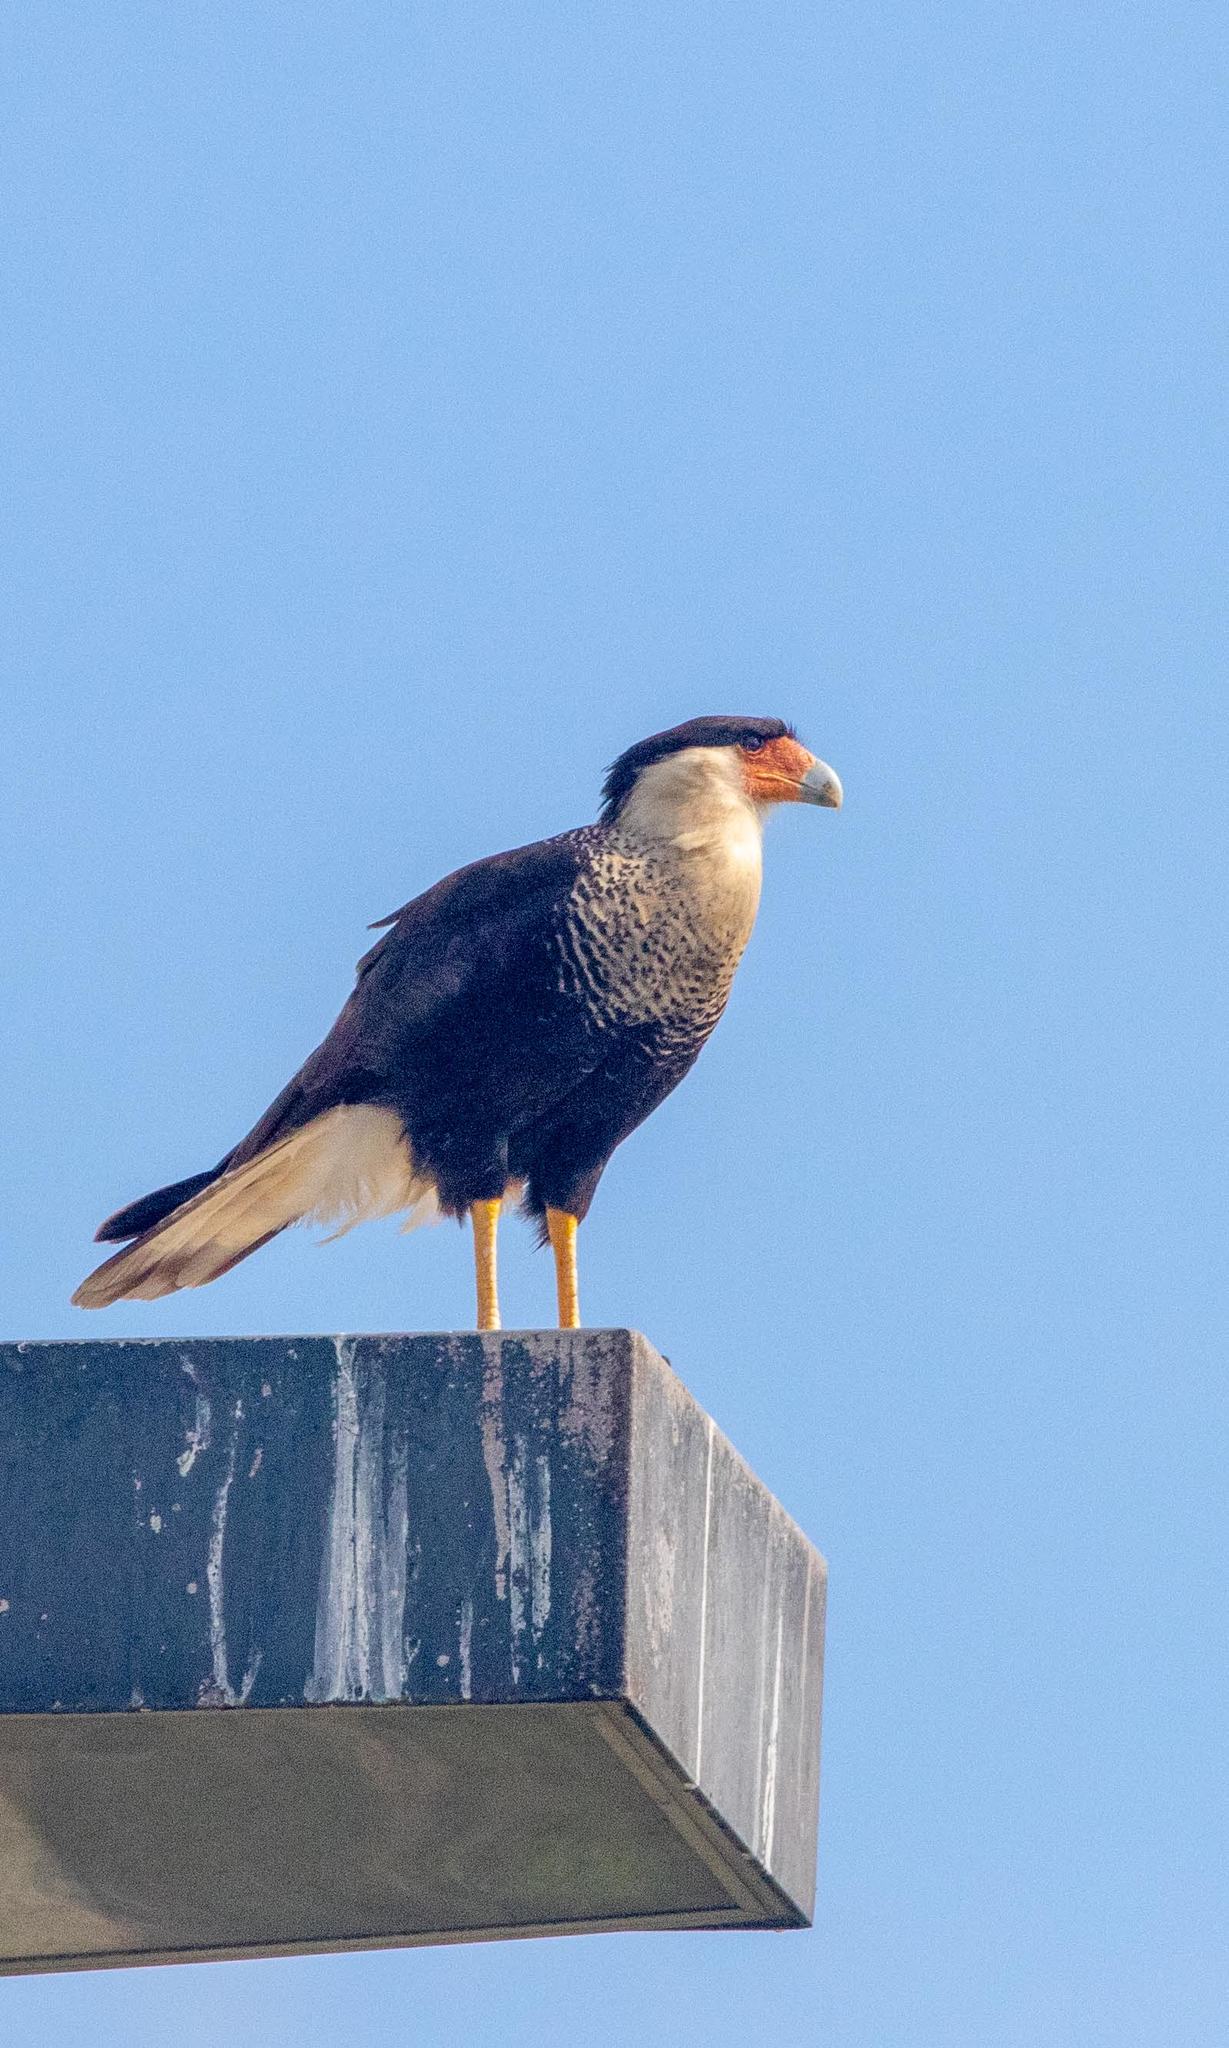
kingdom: Animalia
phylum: Chordata
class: Aves
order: Falconiformes
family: Falconidae
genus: Caracara
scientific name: Caracara plancus
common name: Southern caracara
